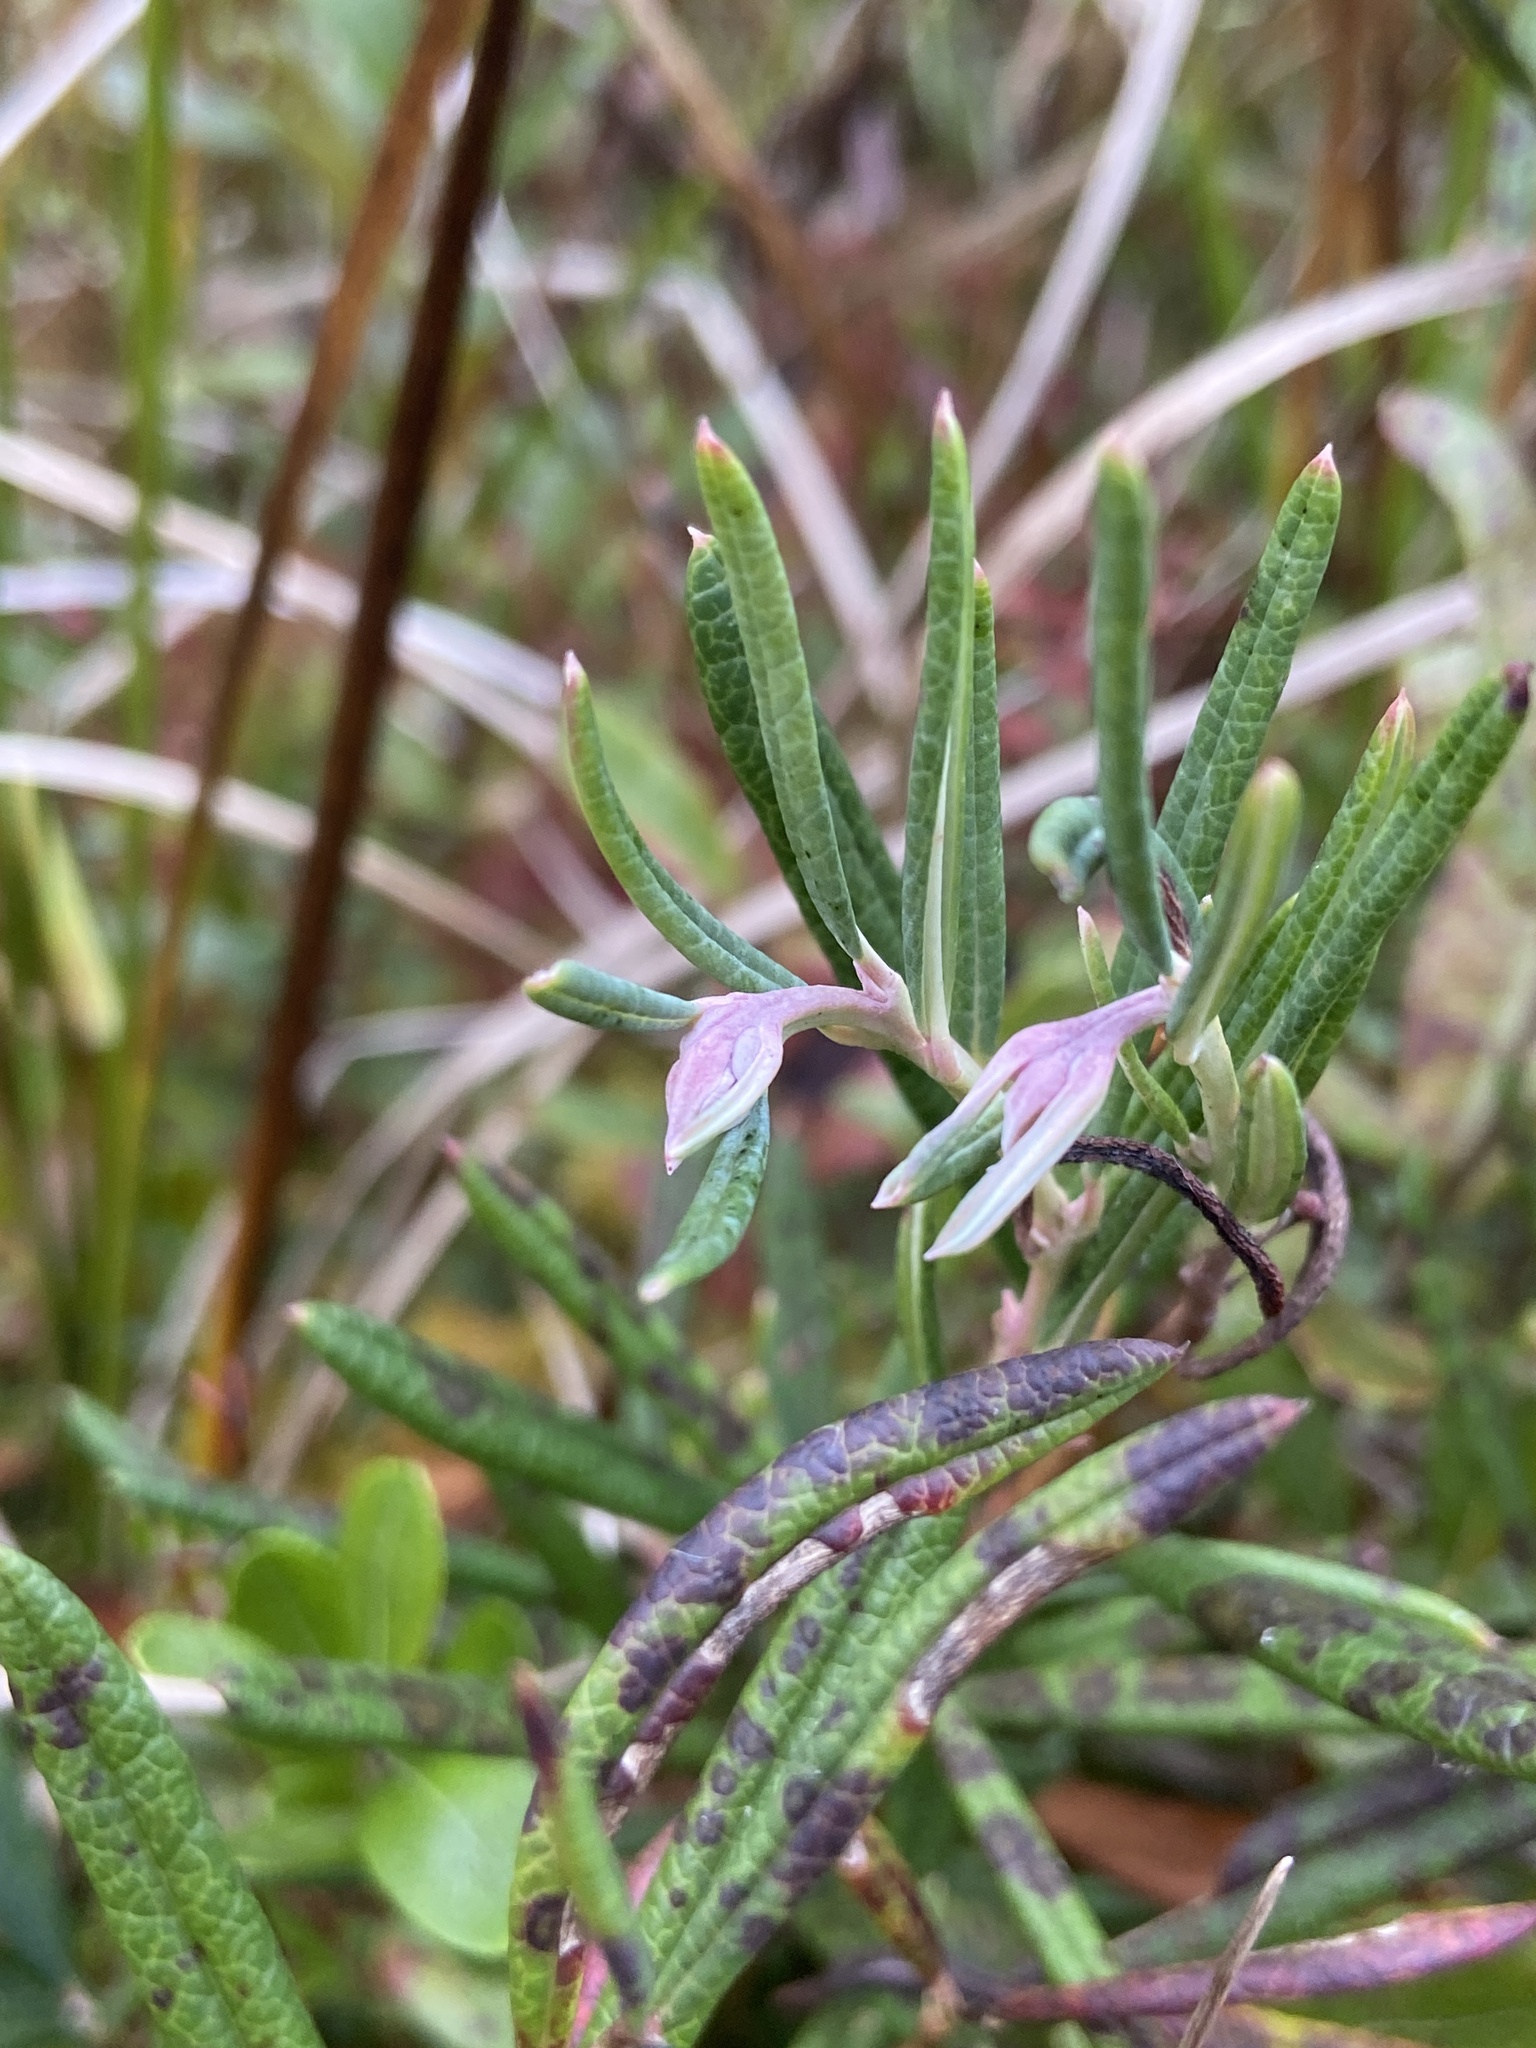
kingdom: Plantae
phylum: Tracheophyta
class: Magnoliopsida
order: Ericales
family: Ericaceae
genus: Andromeda
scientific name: Andromeda polifolia
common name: Bog-rosemary
